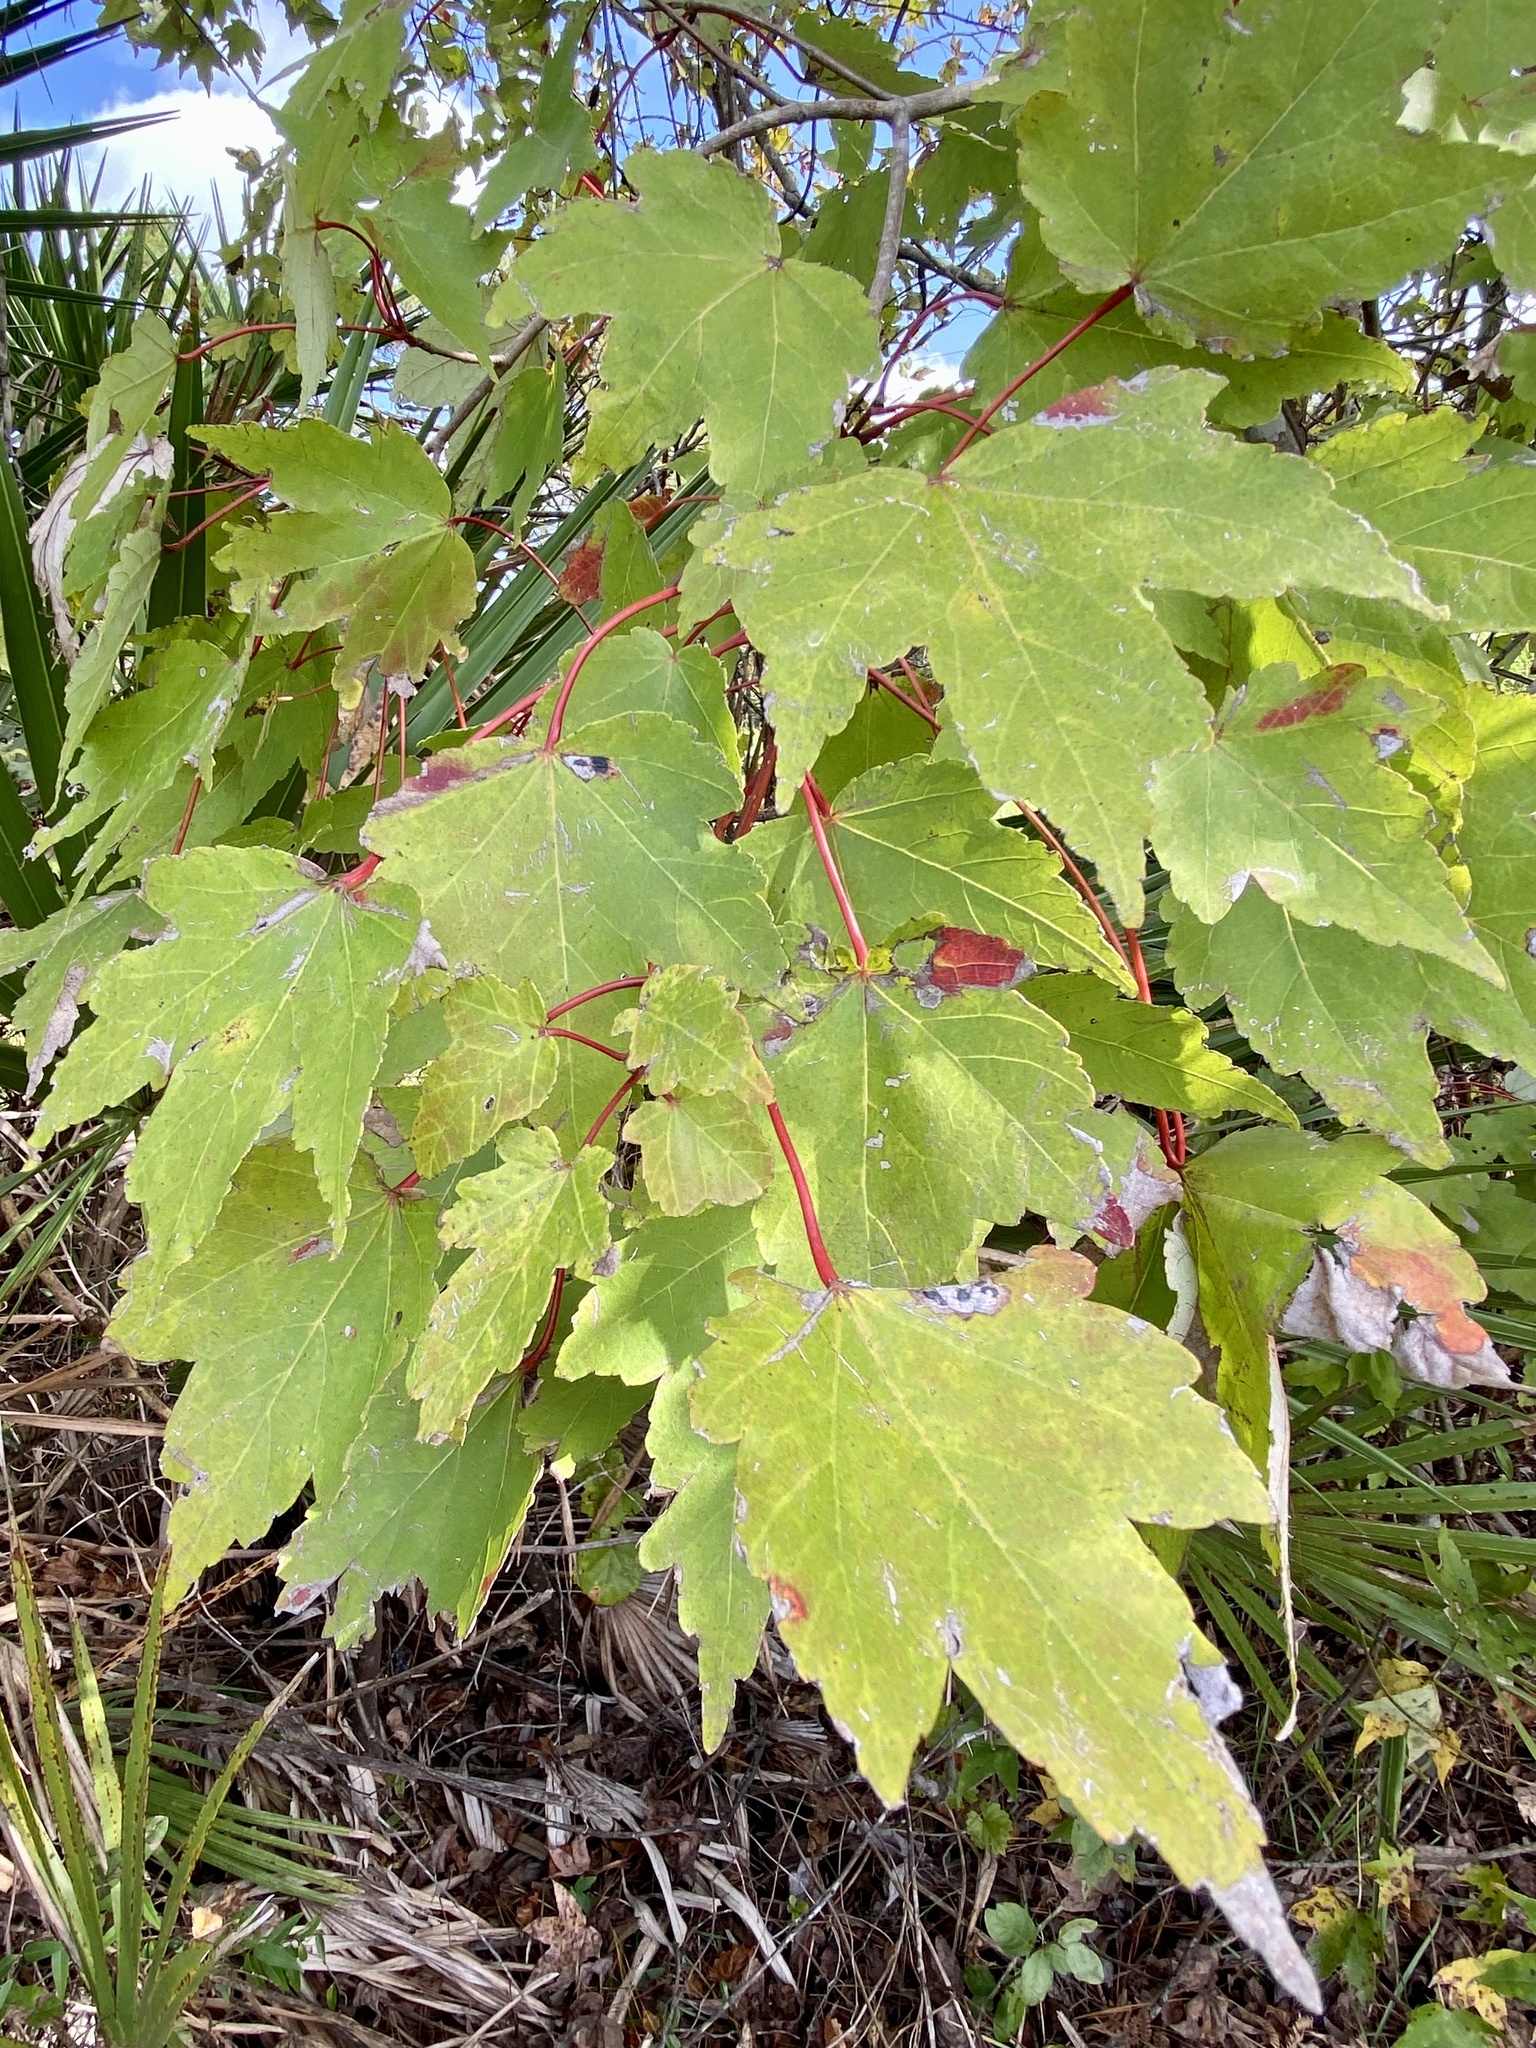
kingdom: Plantae
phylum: Tracheophyta
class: Magnoliopsida
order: Sapindales
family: Sapindaceae
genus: Acer
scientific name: Acer rubrum
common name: Red maple
